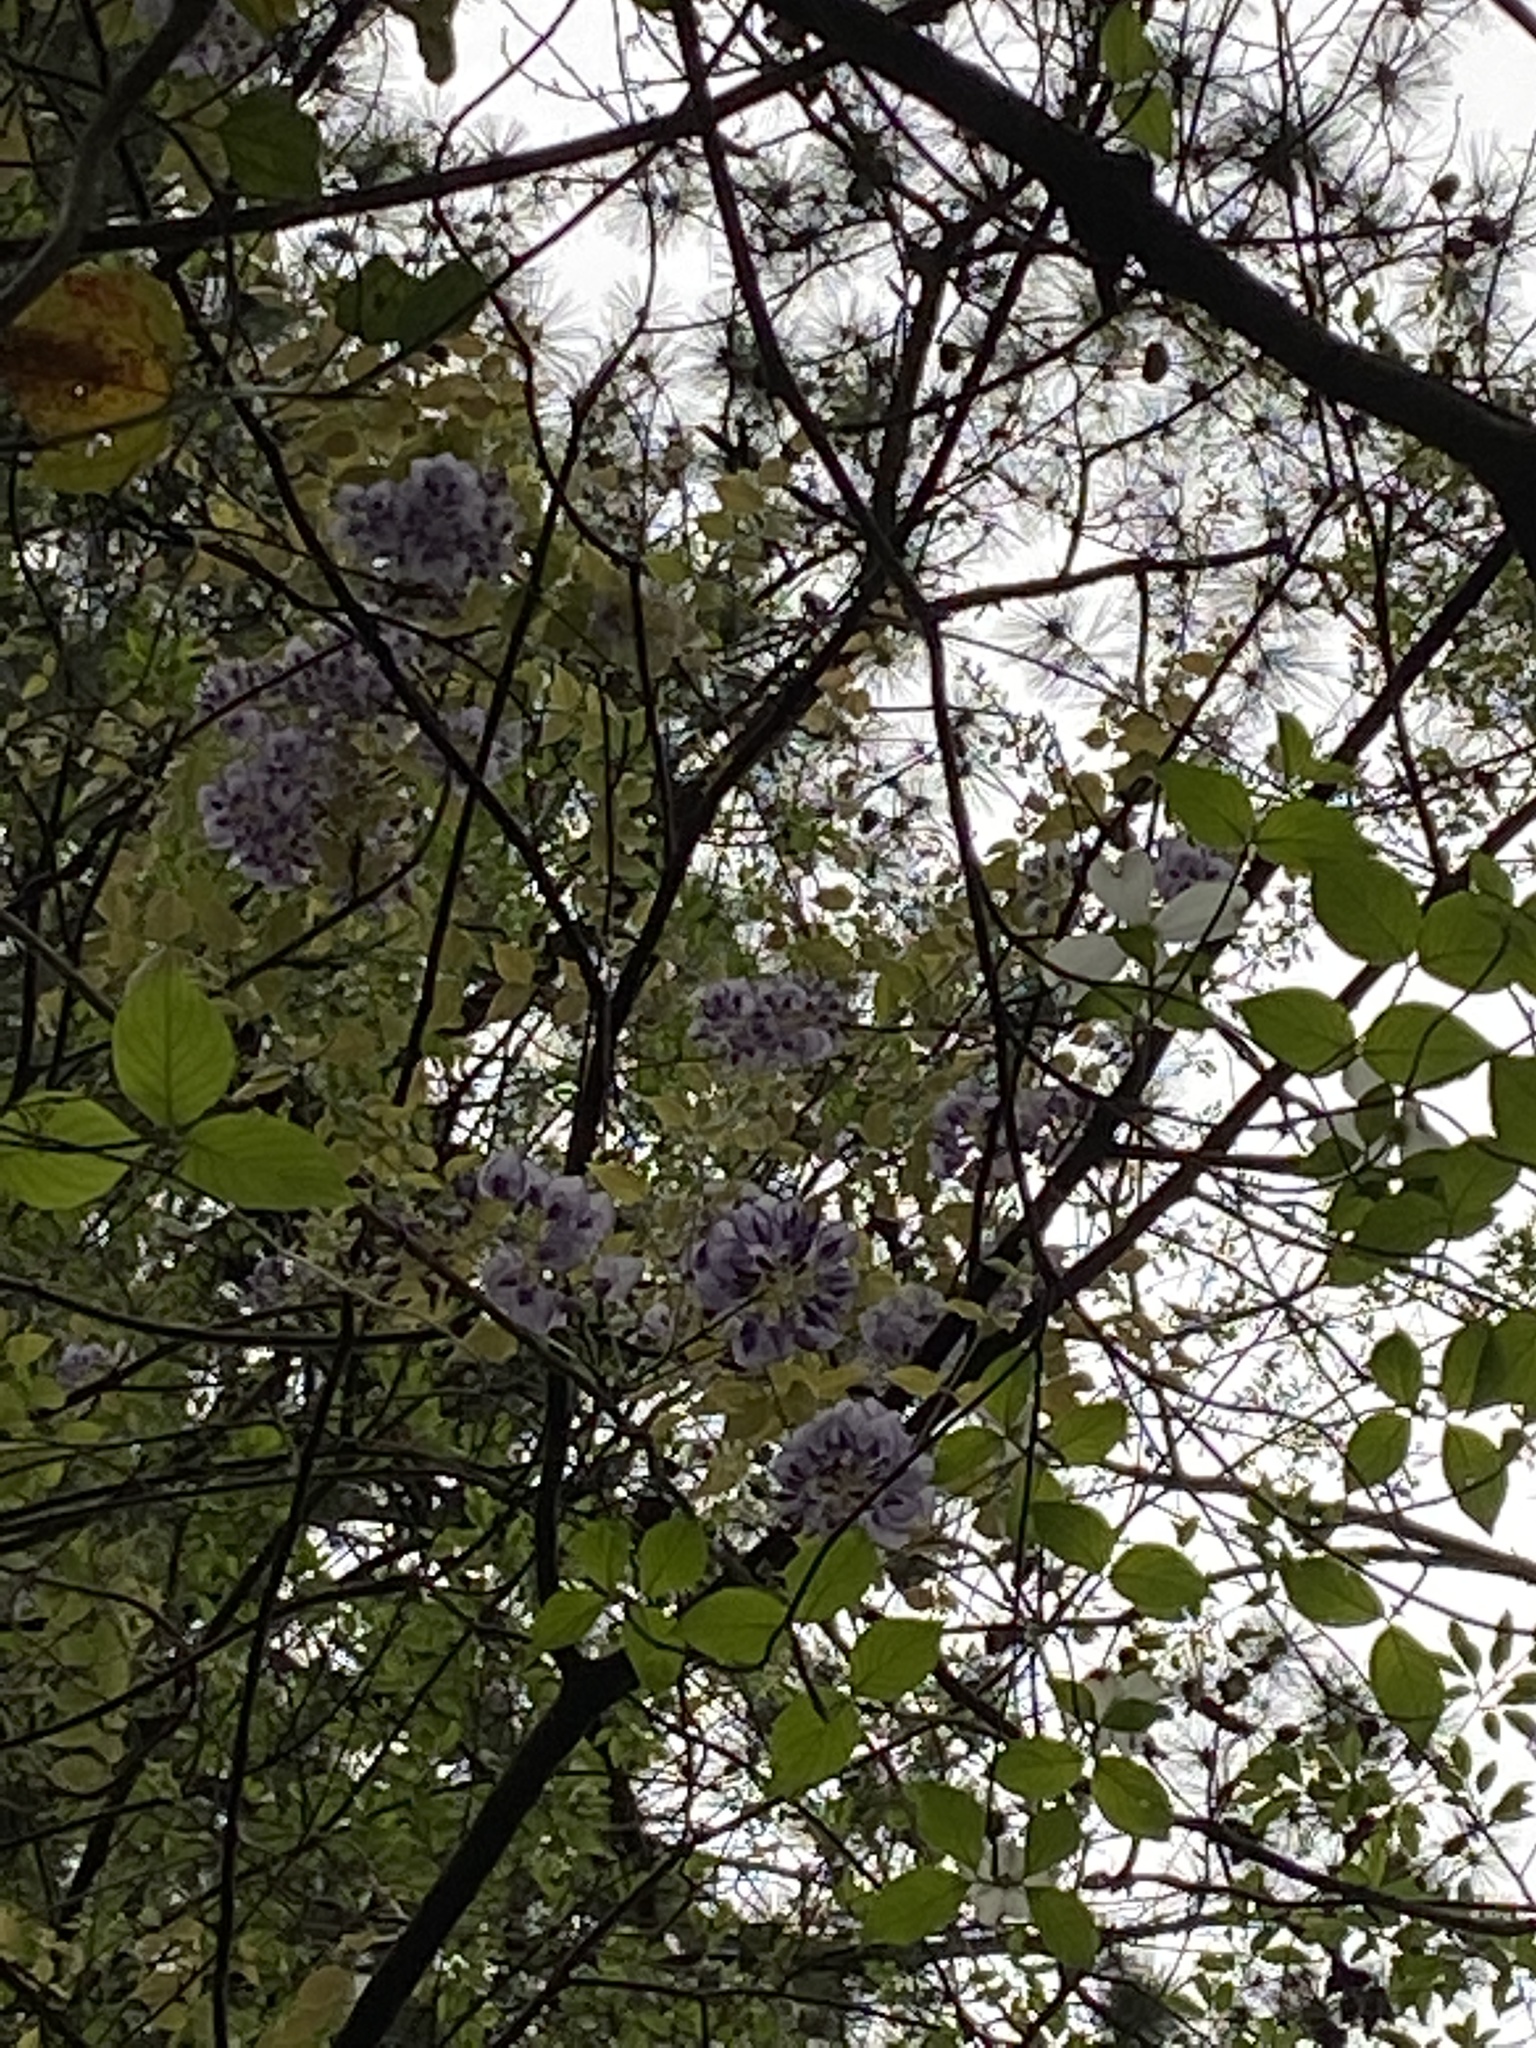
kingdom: Plantae
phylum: Tracheophyta
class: Magnoliopsida
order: Fabales
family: Fabaceae
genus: Wisteria
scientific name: Wisteria sinensis
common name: Chinese wisteria
